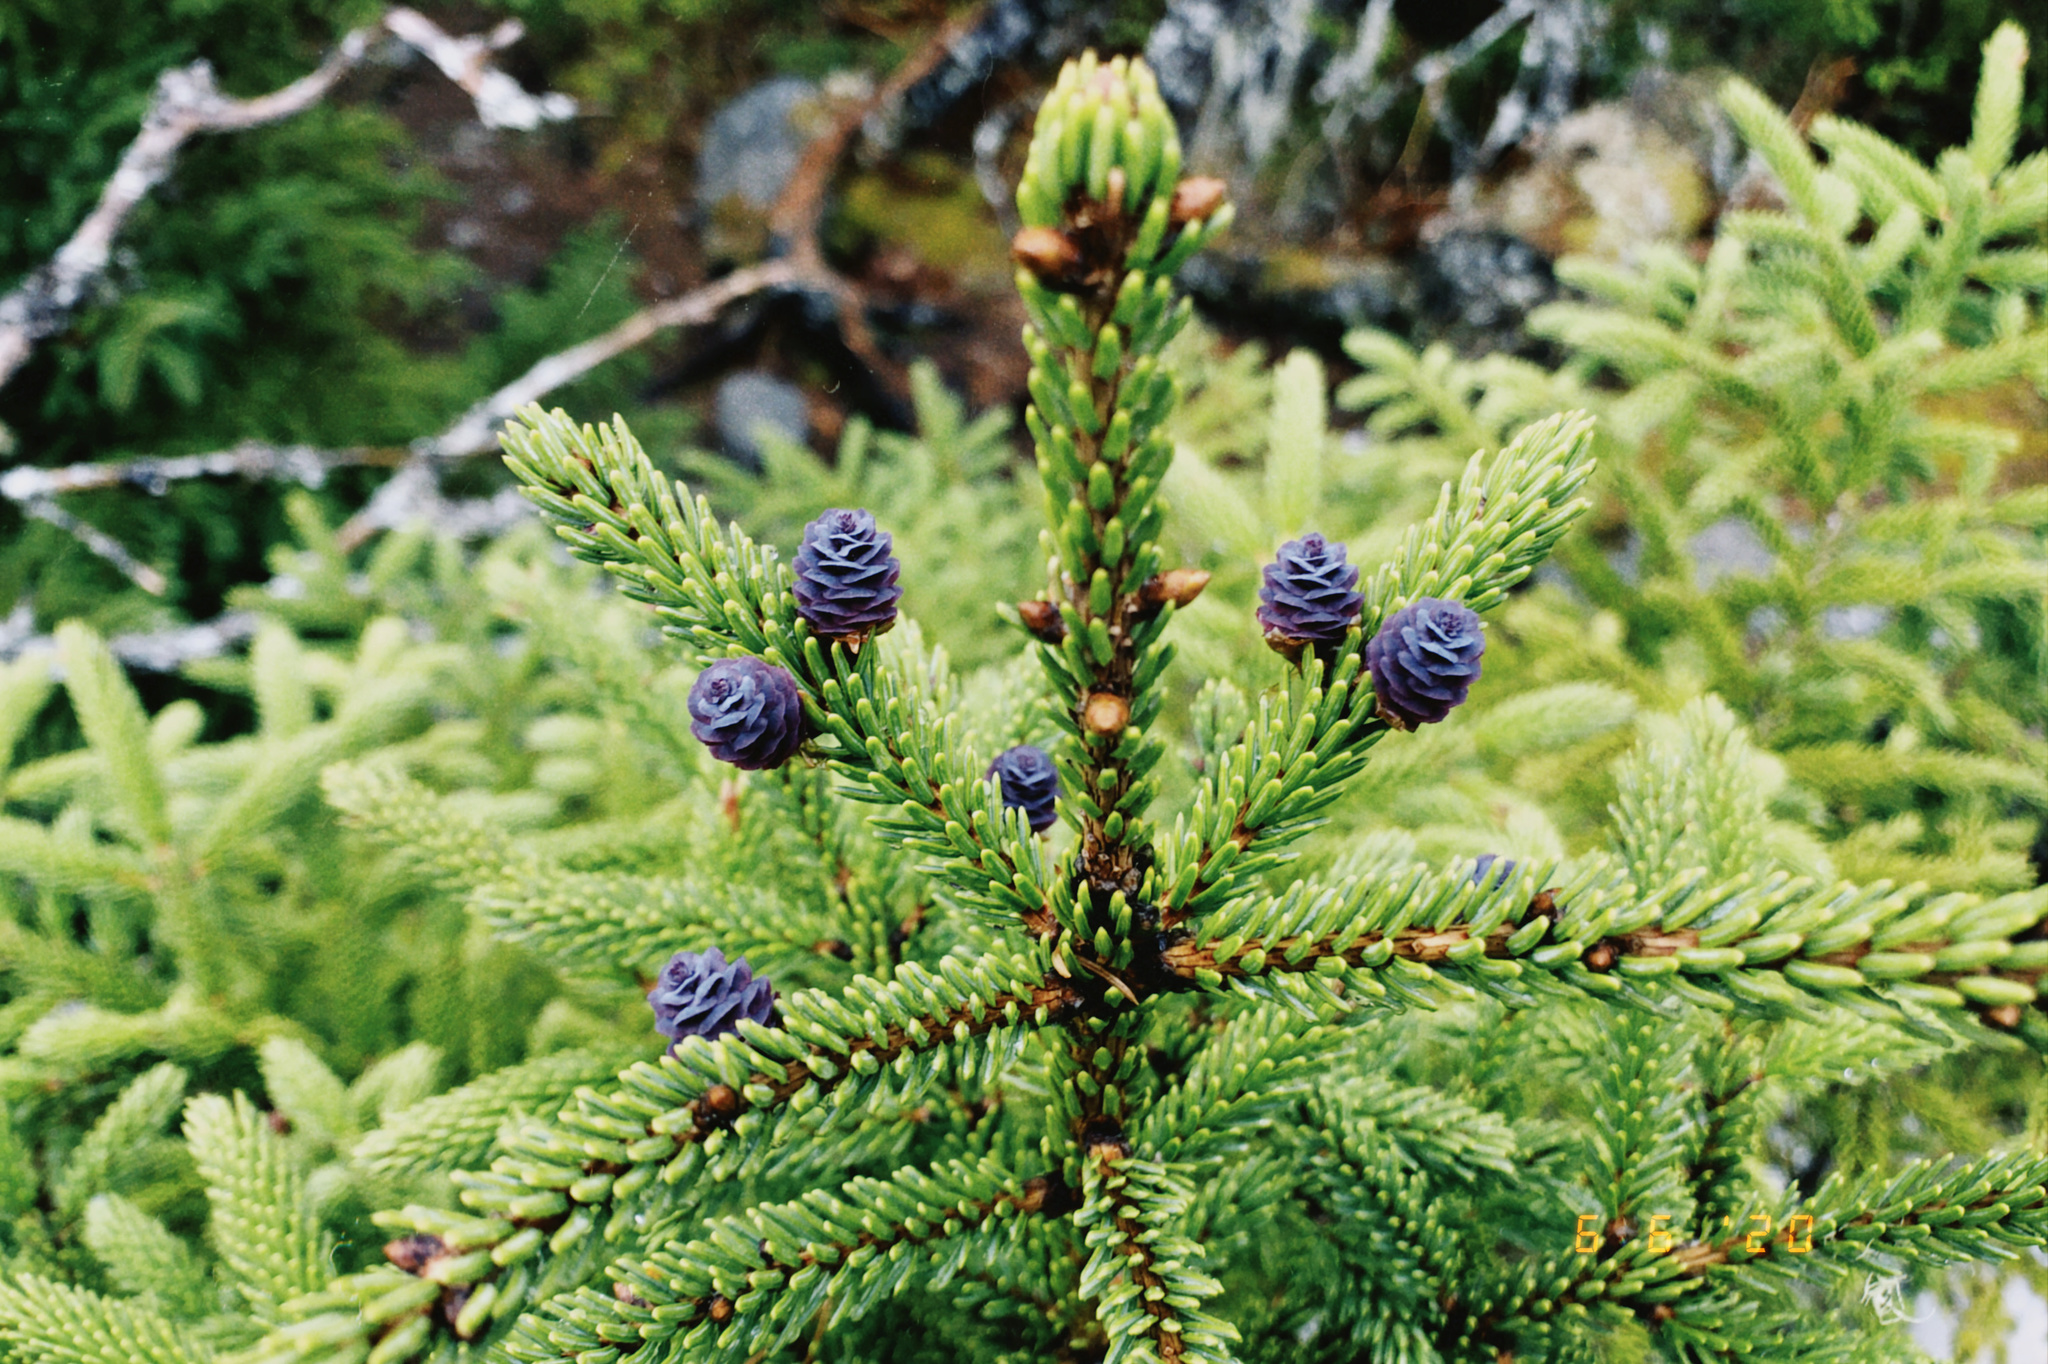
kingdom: Plantae
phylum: Tracheophyta
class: Pinopsida
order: Pinales
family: Pinaceae
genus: Picea
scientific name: Picea mariana
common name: Black spruce
